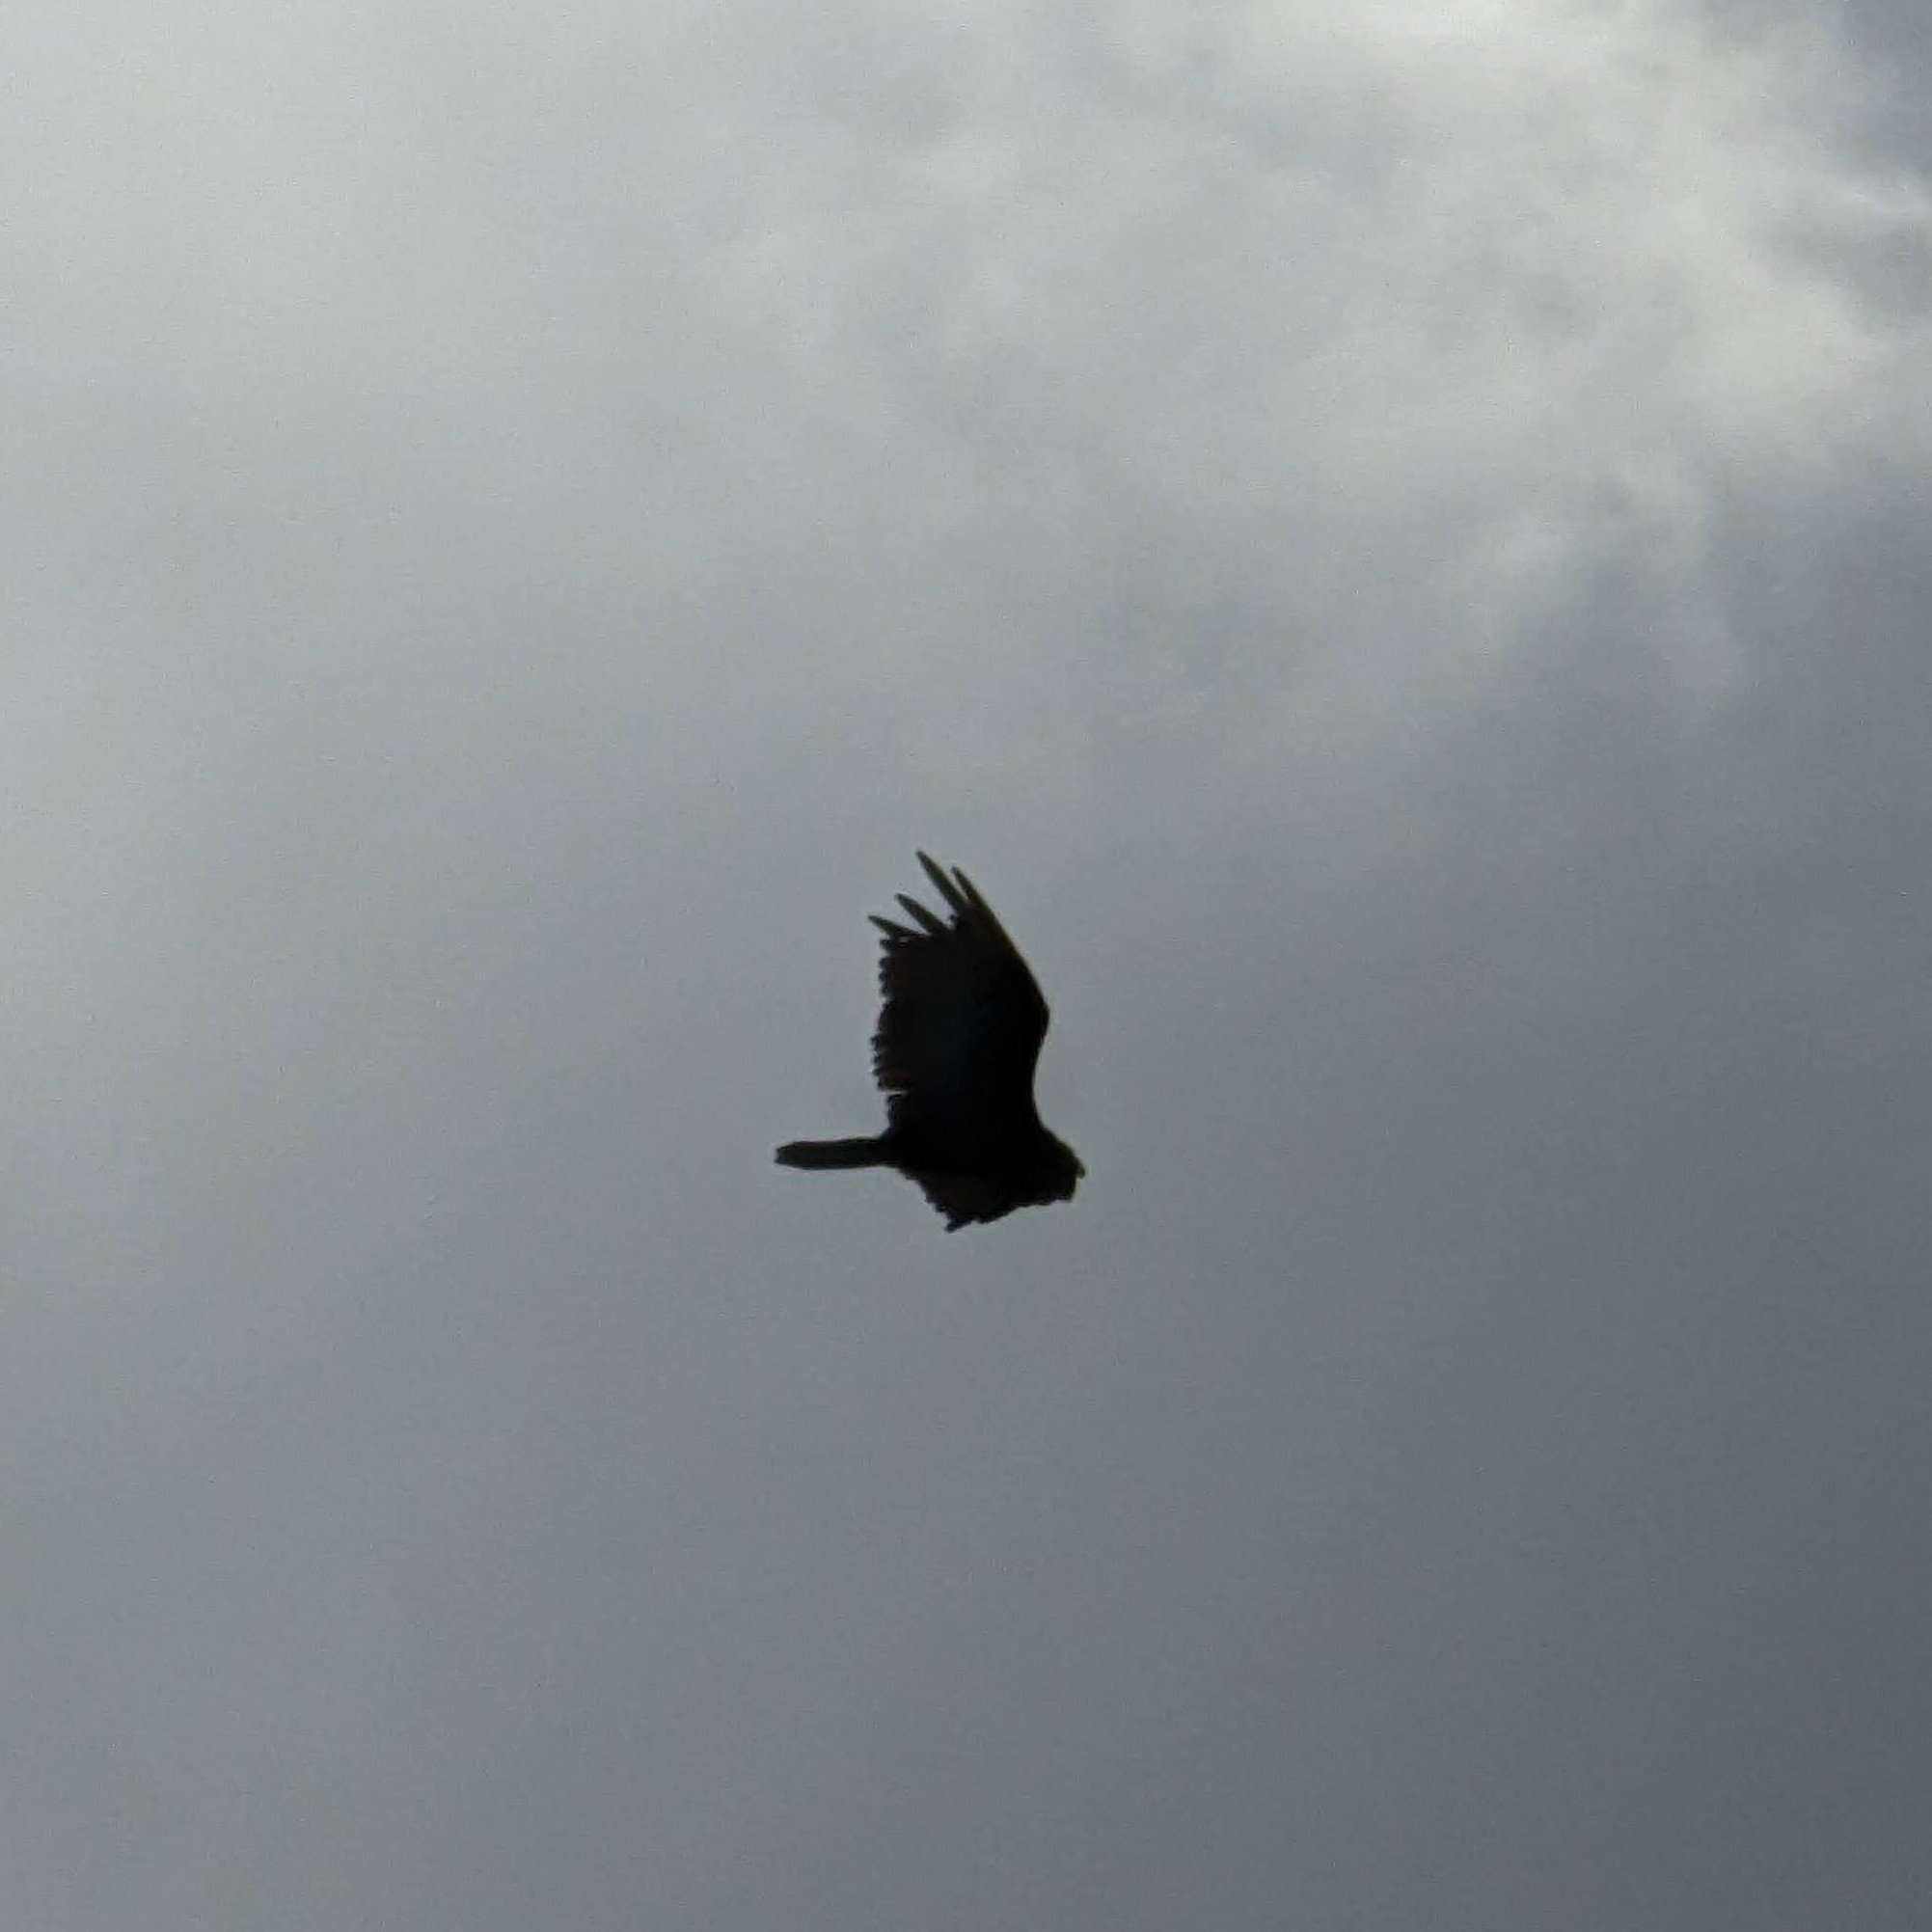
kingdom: Animalia
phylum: Chordata
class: Aves
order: Accipitriformes
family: Cathartidae
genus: Cathartes
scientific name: Cathartes aura
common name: Turkey vulture
